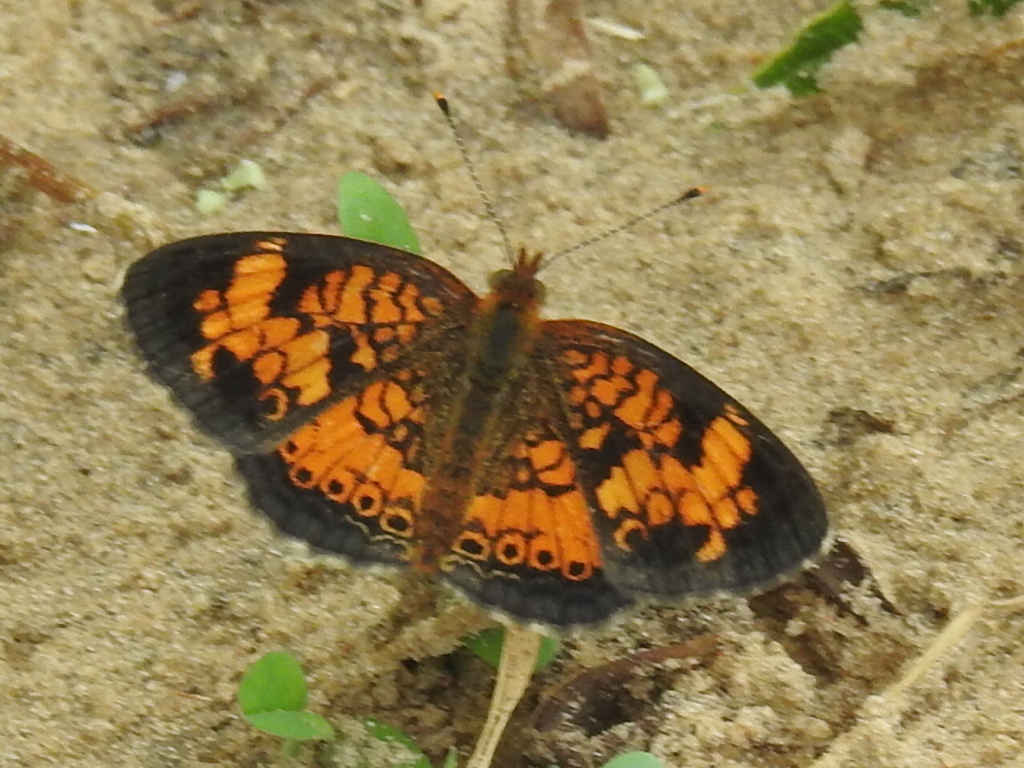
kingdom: Animalia
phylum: Arthropoda
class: Insecta
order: Lepidoptera
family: Nymphalidae
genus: Phyciodes
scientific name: Phyciodes tharos
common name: Pearl crescent
